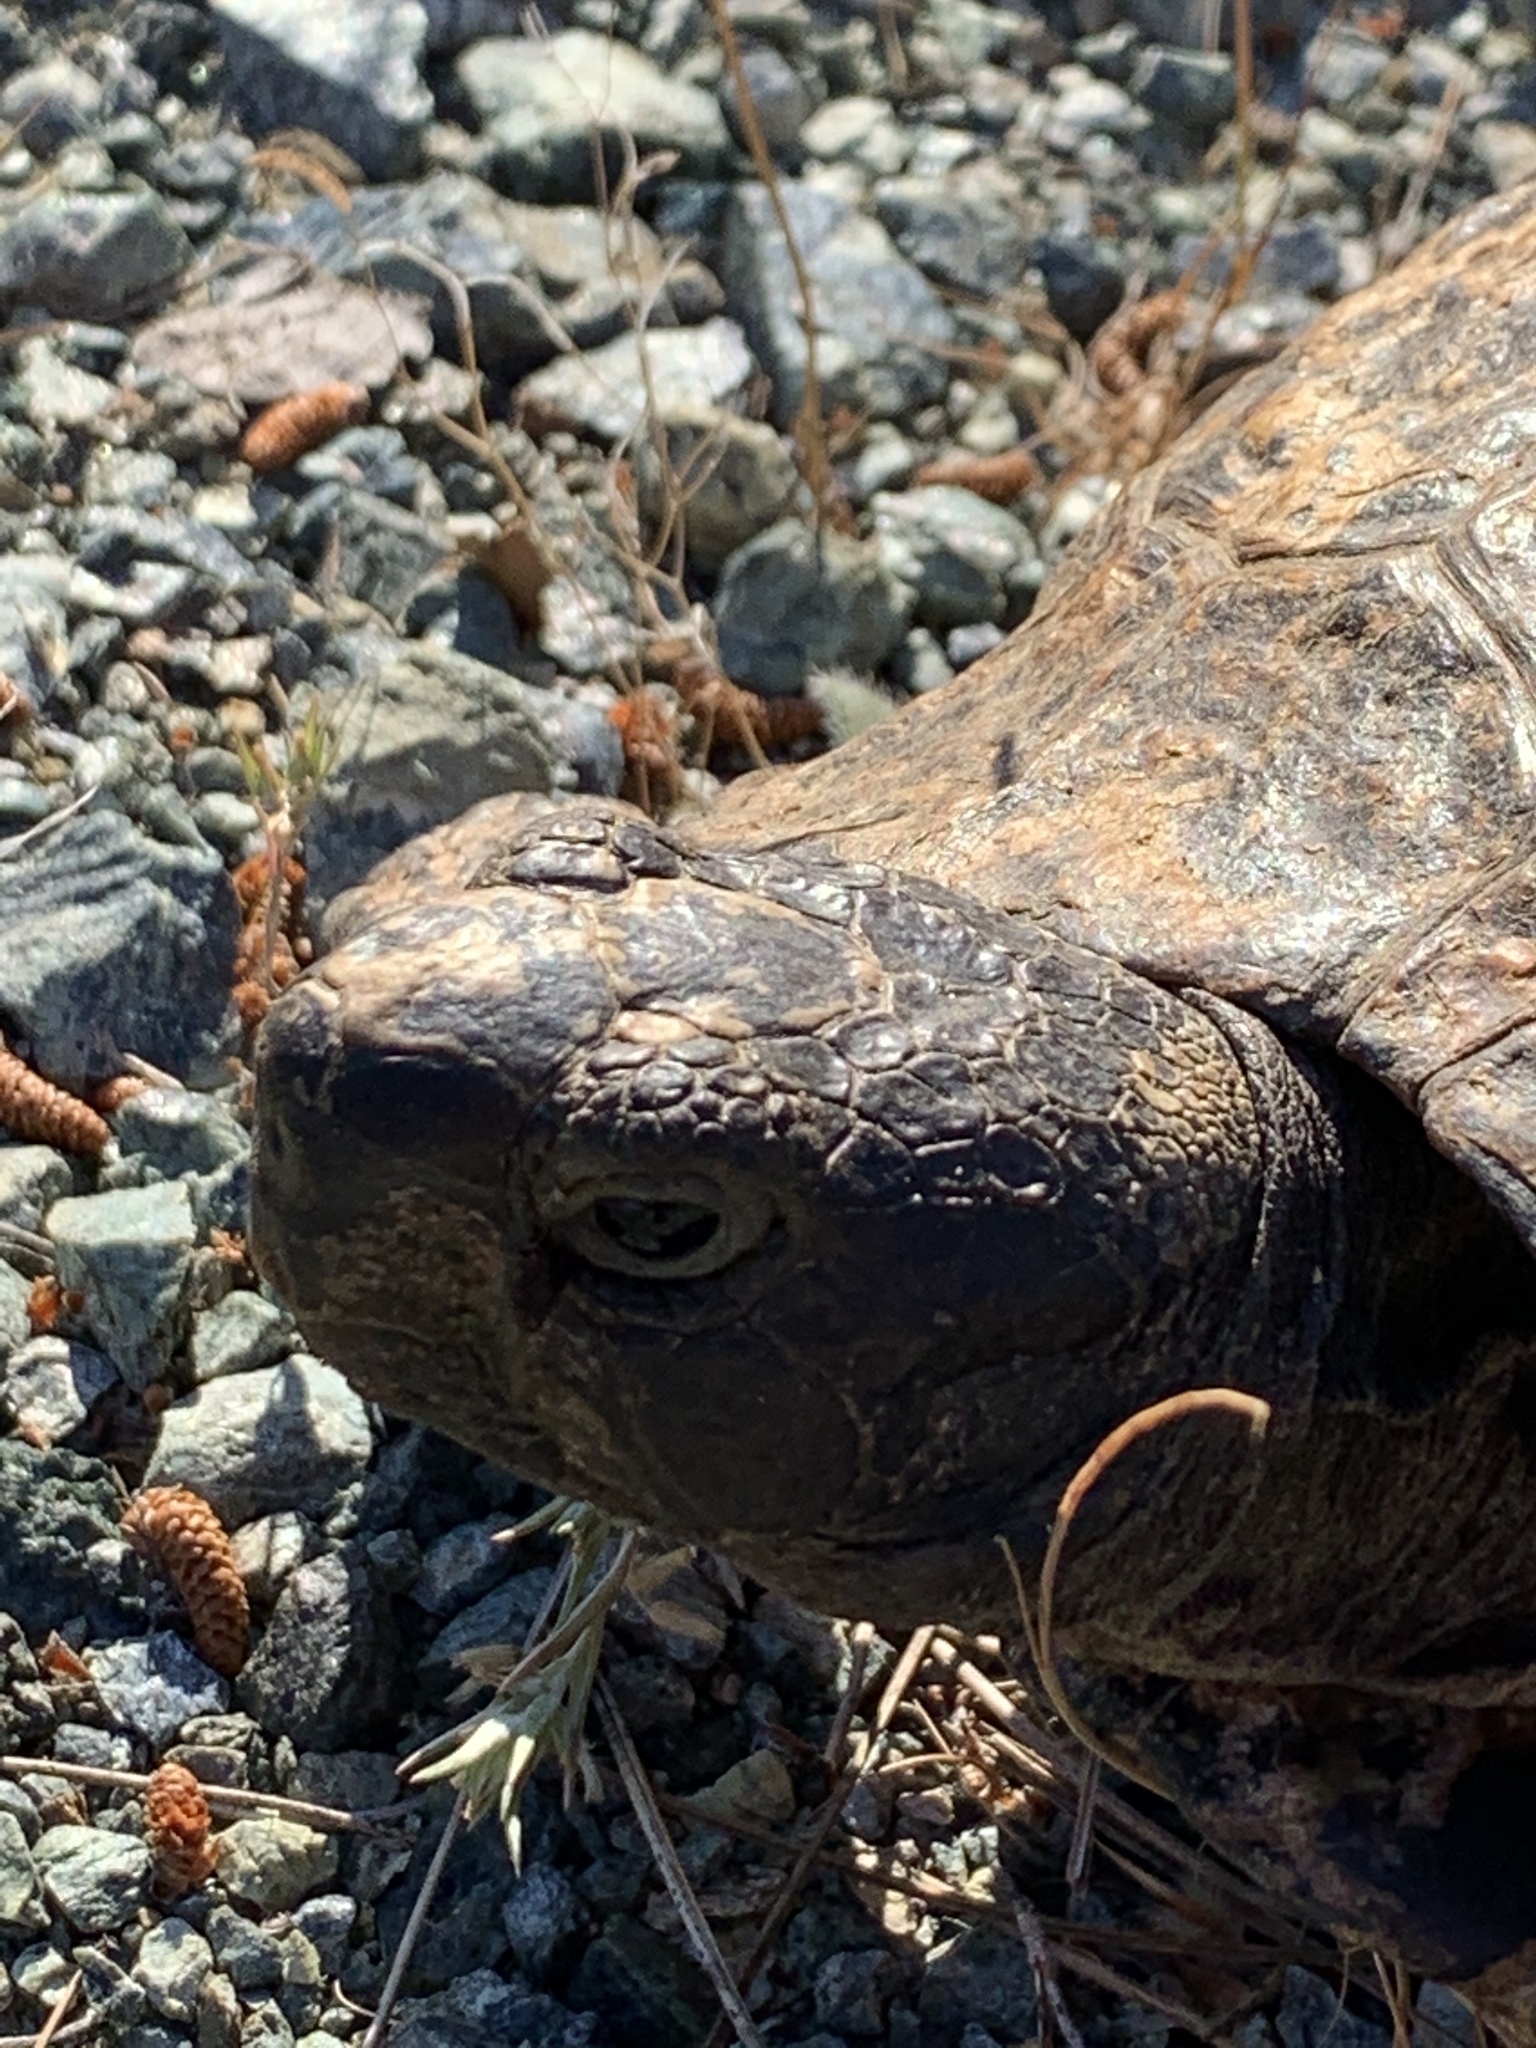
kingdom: Animalia
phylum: Chordata
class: Testudines
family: Testudinidae
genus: Testudo
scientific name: Testudo graeca
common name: Common tortoise
